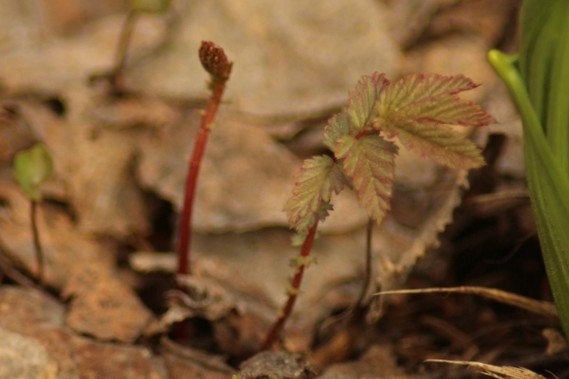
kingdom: Plantae
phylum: Tracheophyta
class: Magnoliopsida
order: Rosales
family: Rosaceae
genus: Filipendula
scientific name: Filipendula ulmaria
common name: Meadowsweet
